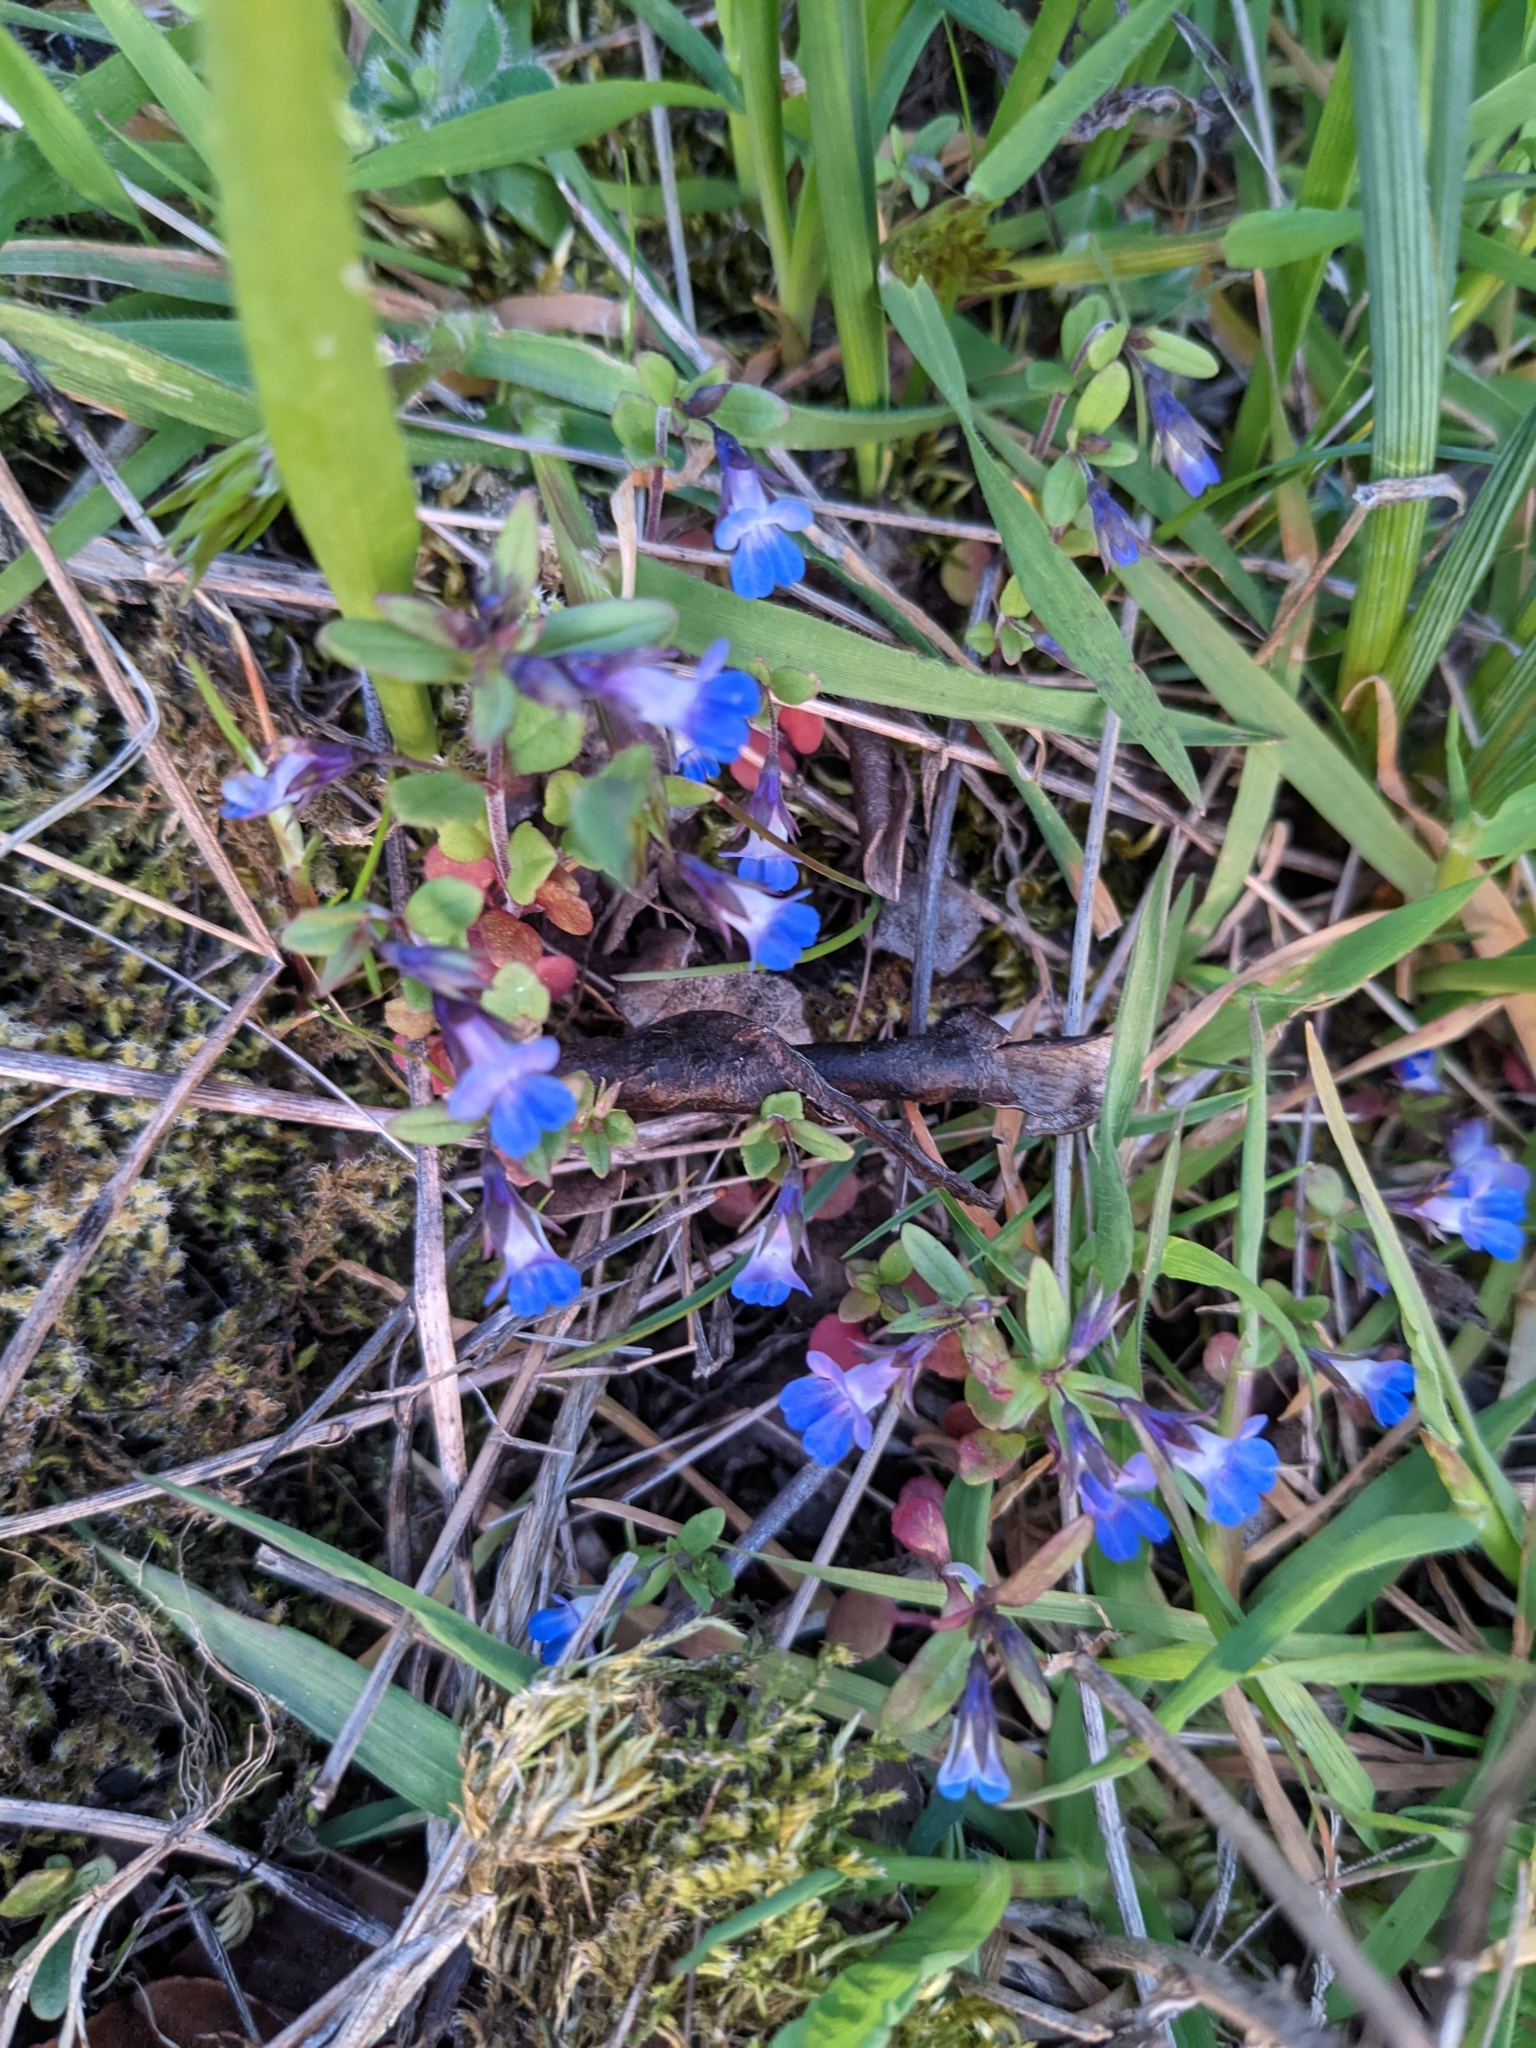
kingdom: Plantae
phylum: Tracheophyta
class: Magnoliopsida
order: Lamiales
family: Plantaginaceae
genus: Collinsia
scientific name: Collinsia parviflora
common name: Blue-lips
